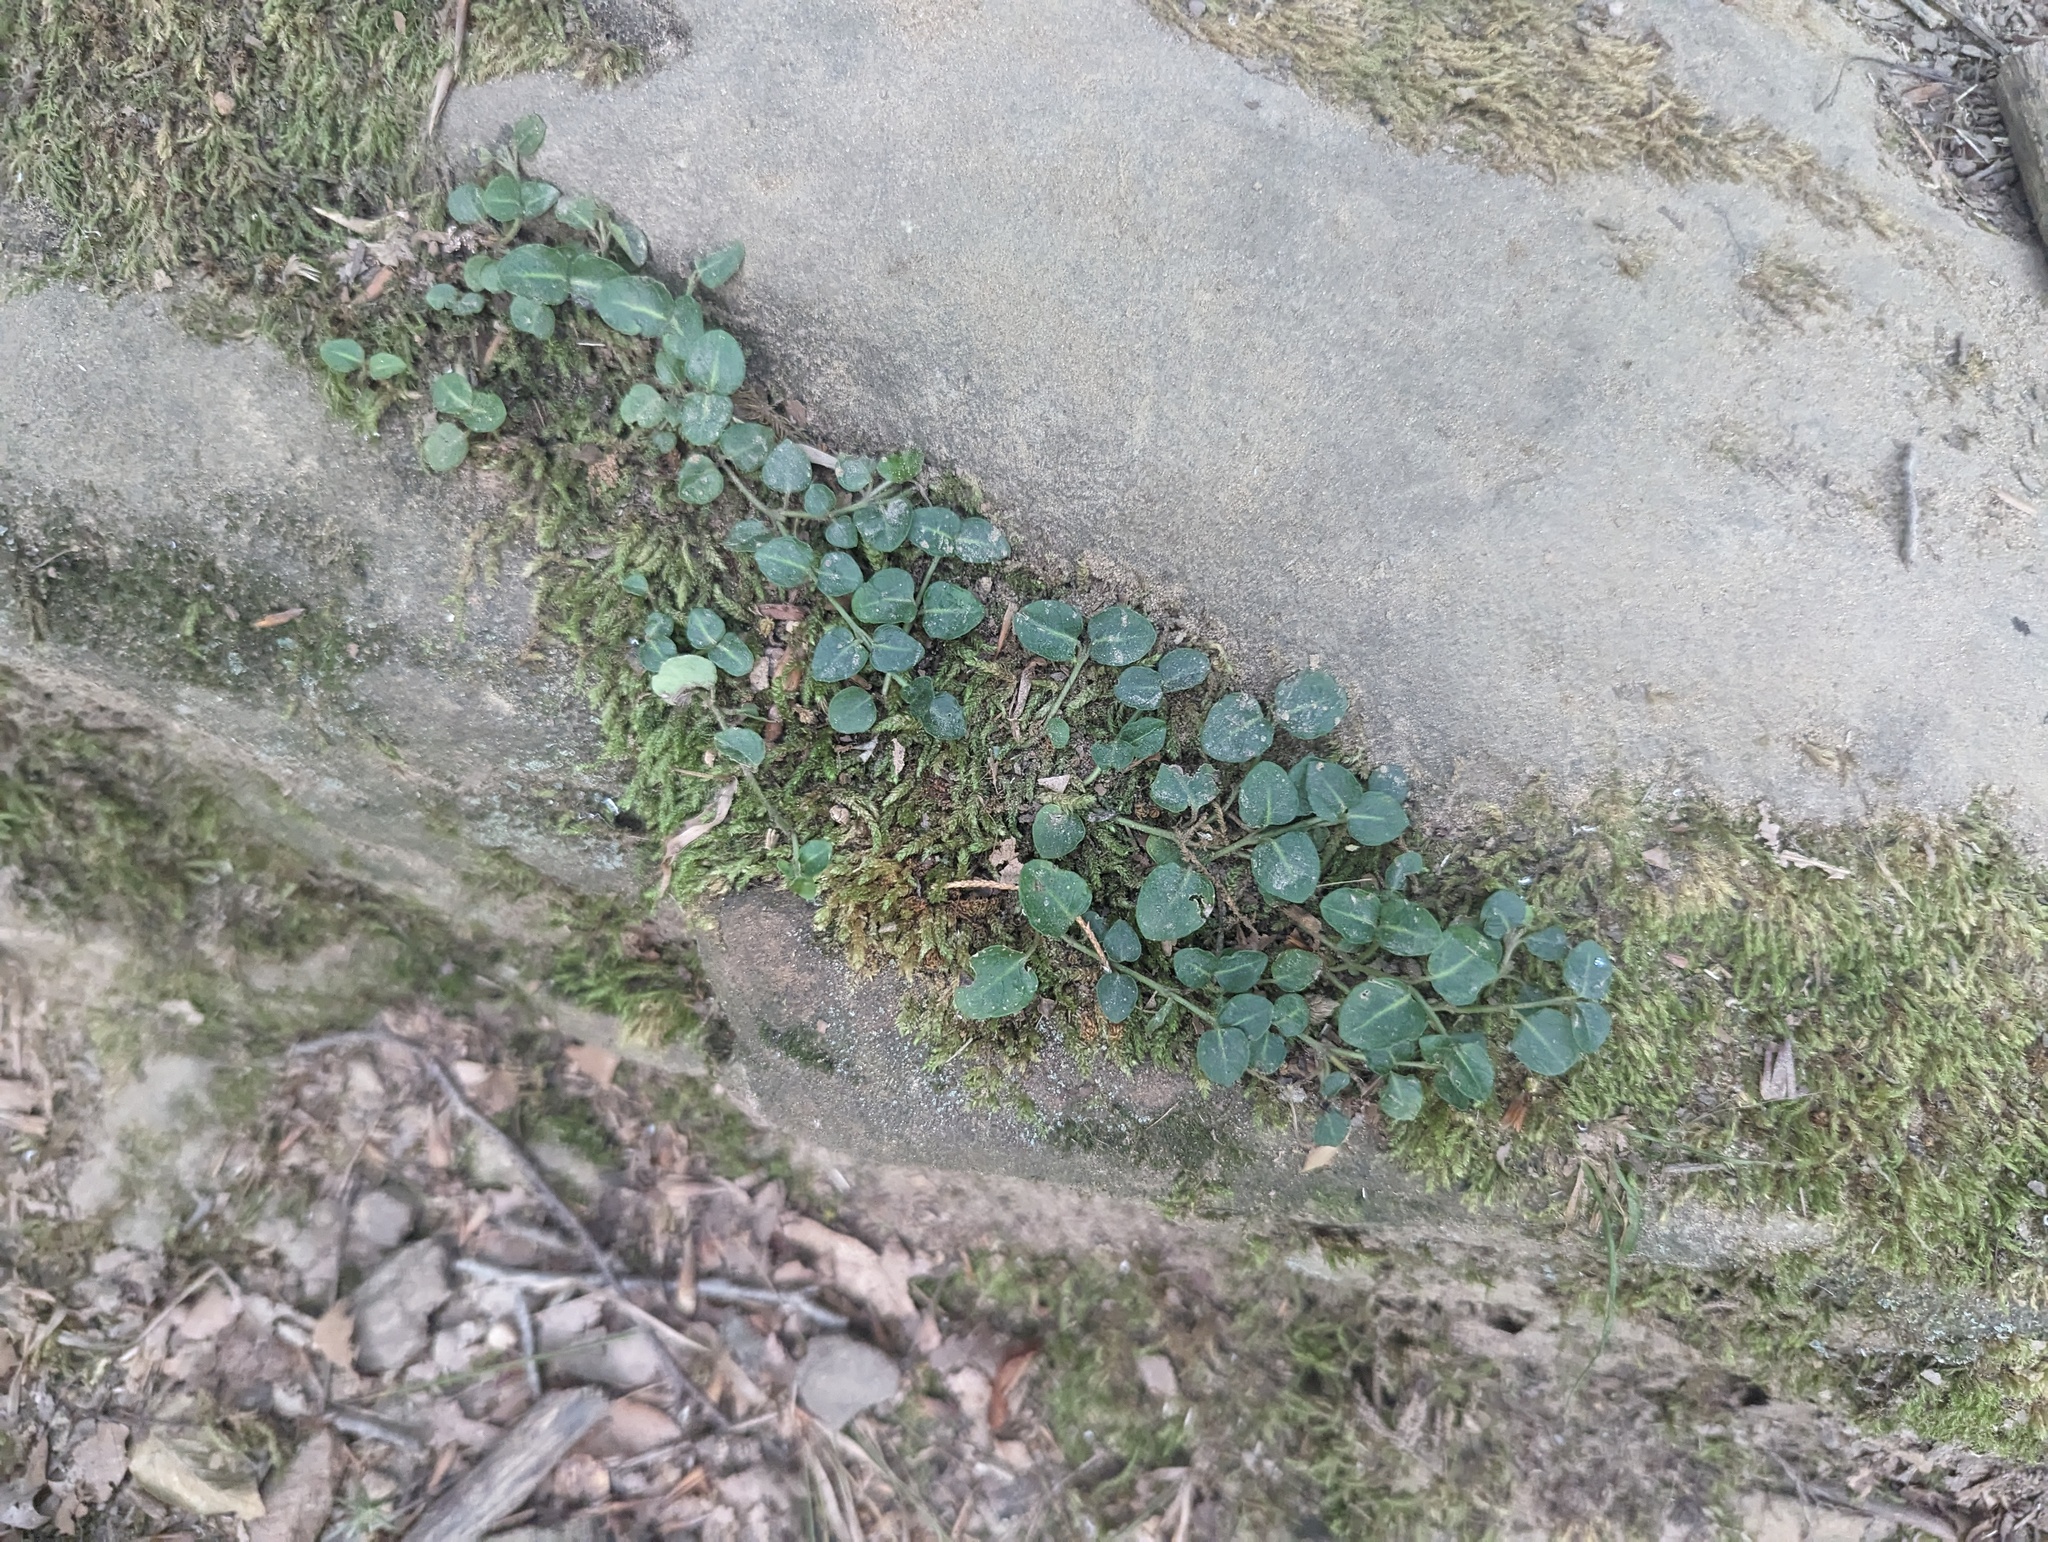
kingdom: Plantae
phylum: Tracheophyta
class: Magnoliopsida
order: Gentianales
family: Rubiaceae
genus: Mitchella
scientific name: Mitchella repens
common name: Partridge-berry
